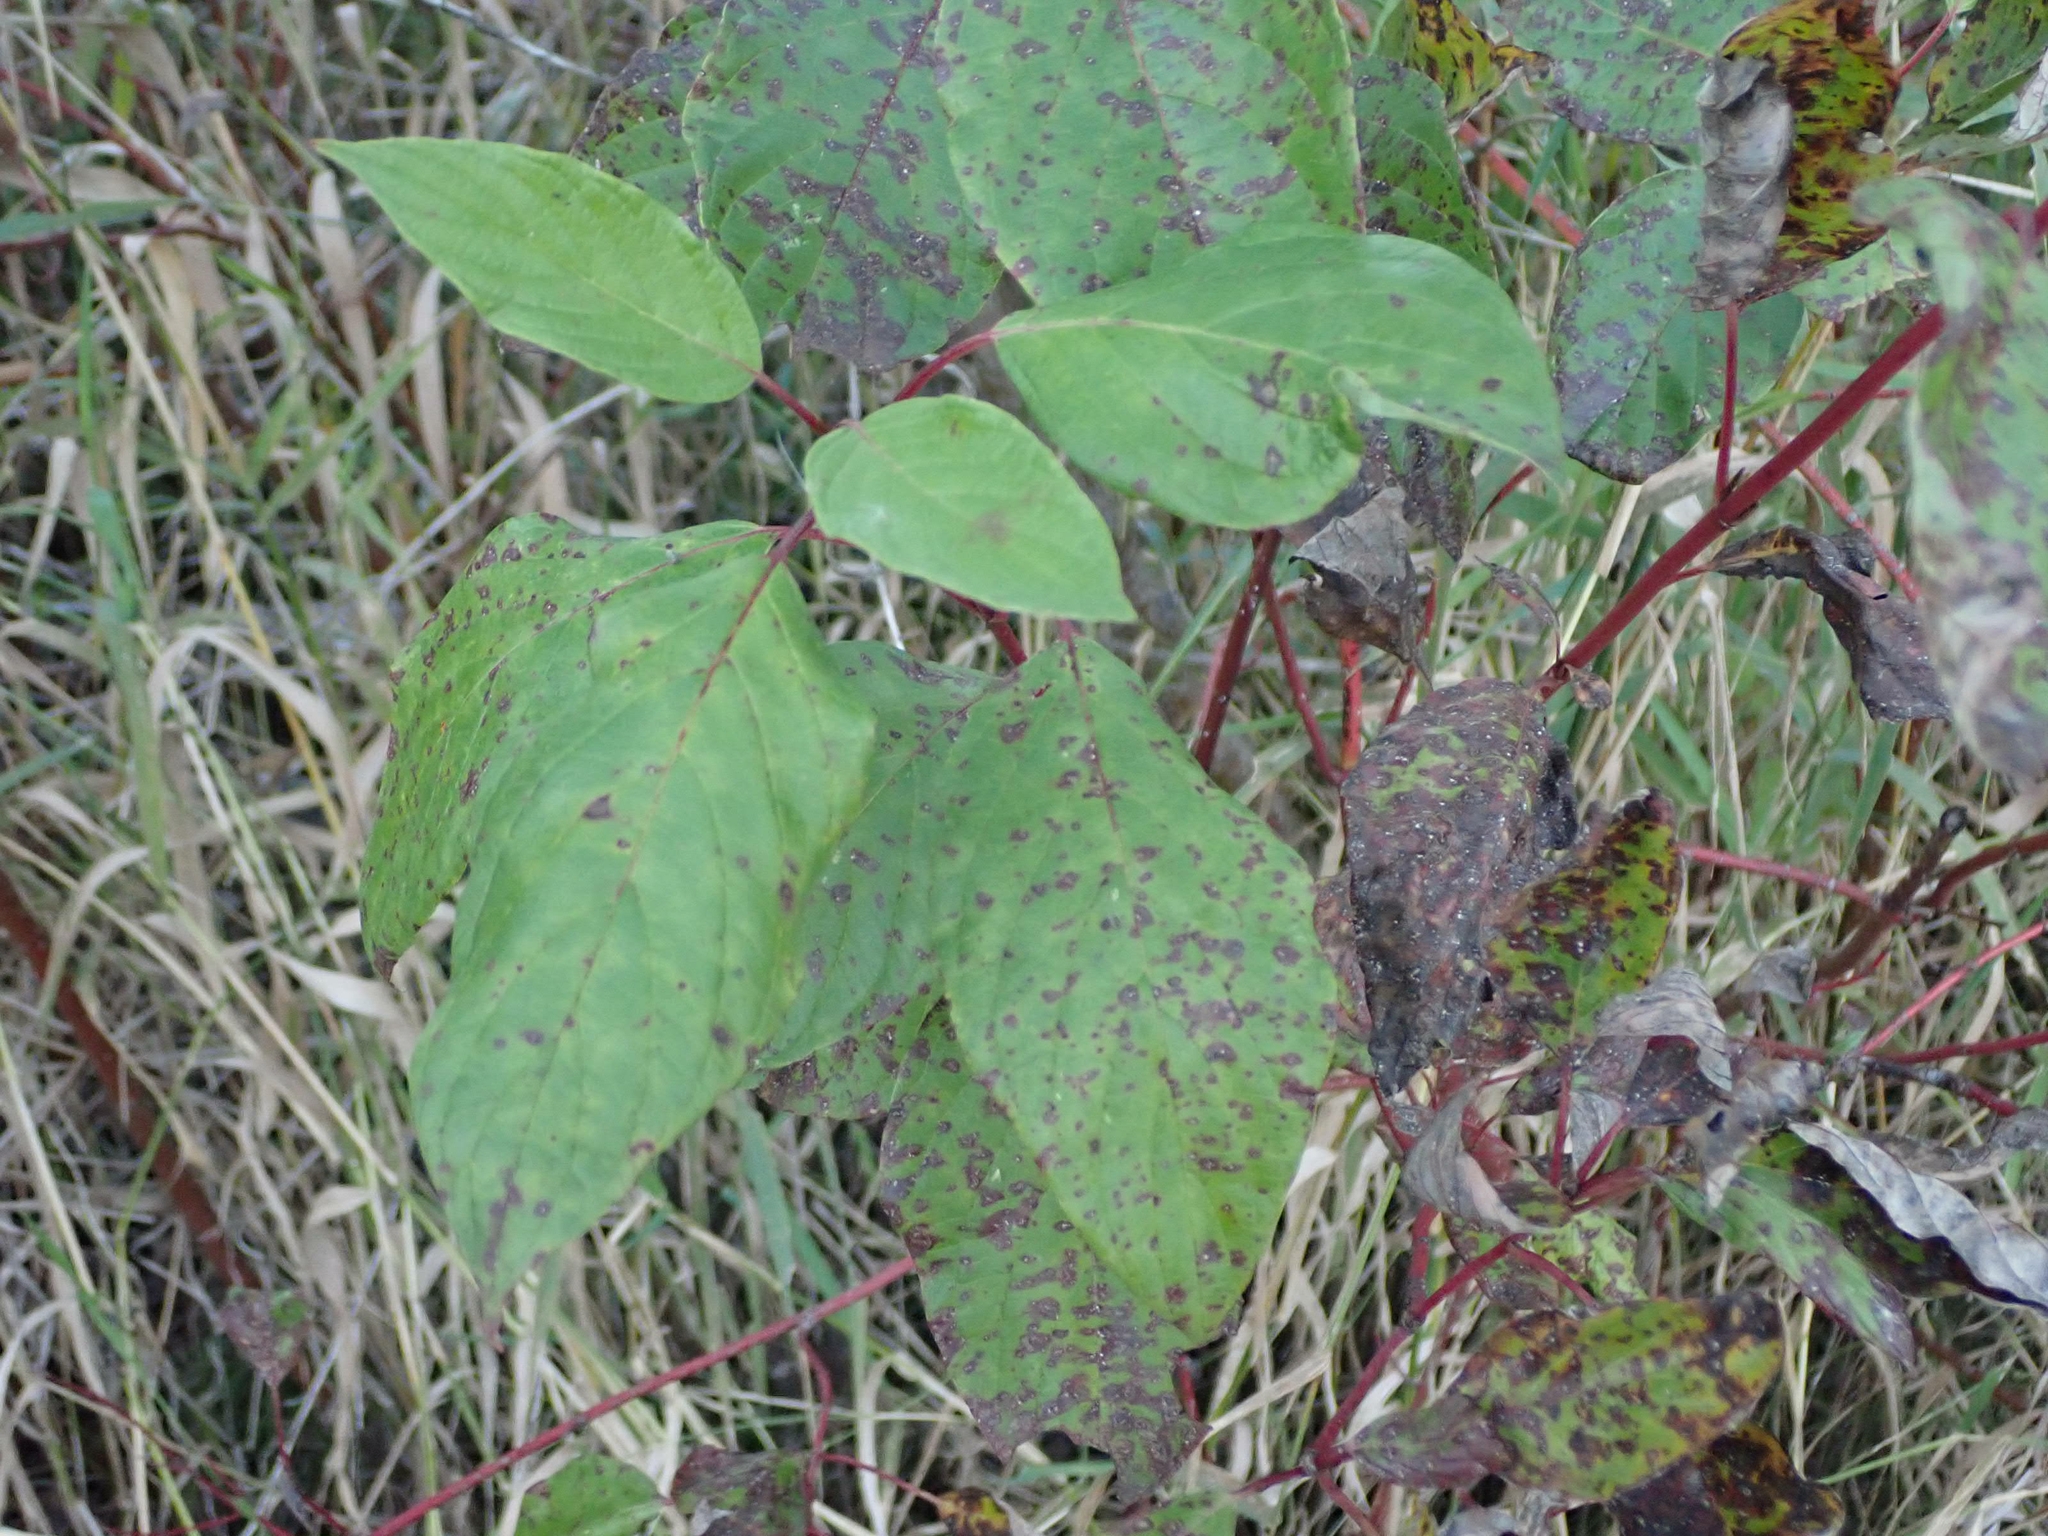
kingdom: Plantae
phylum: Tracheophyta
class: Magnoliopsida
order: Cornales
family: Cornaceae
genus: Cornus
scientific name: Cornus sericea
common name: Red-osier dogwood
